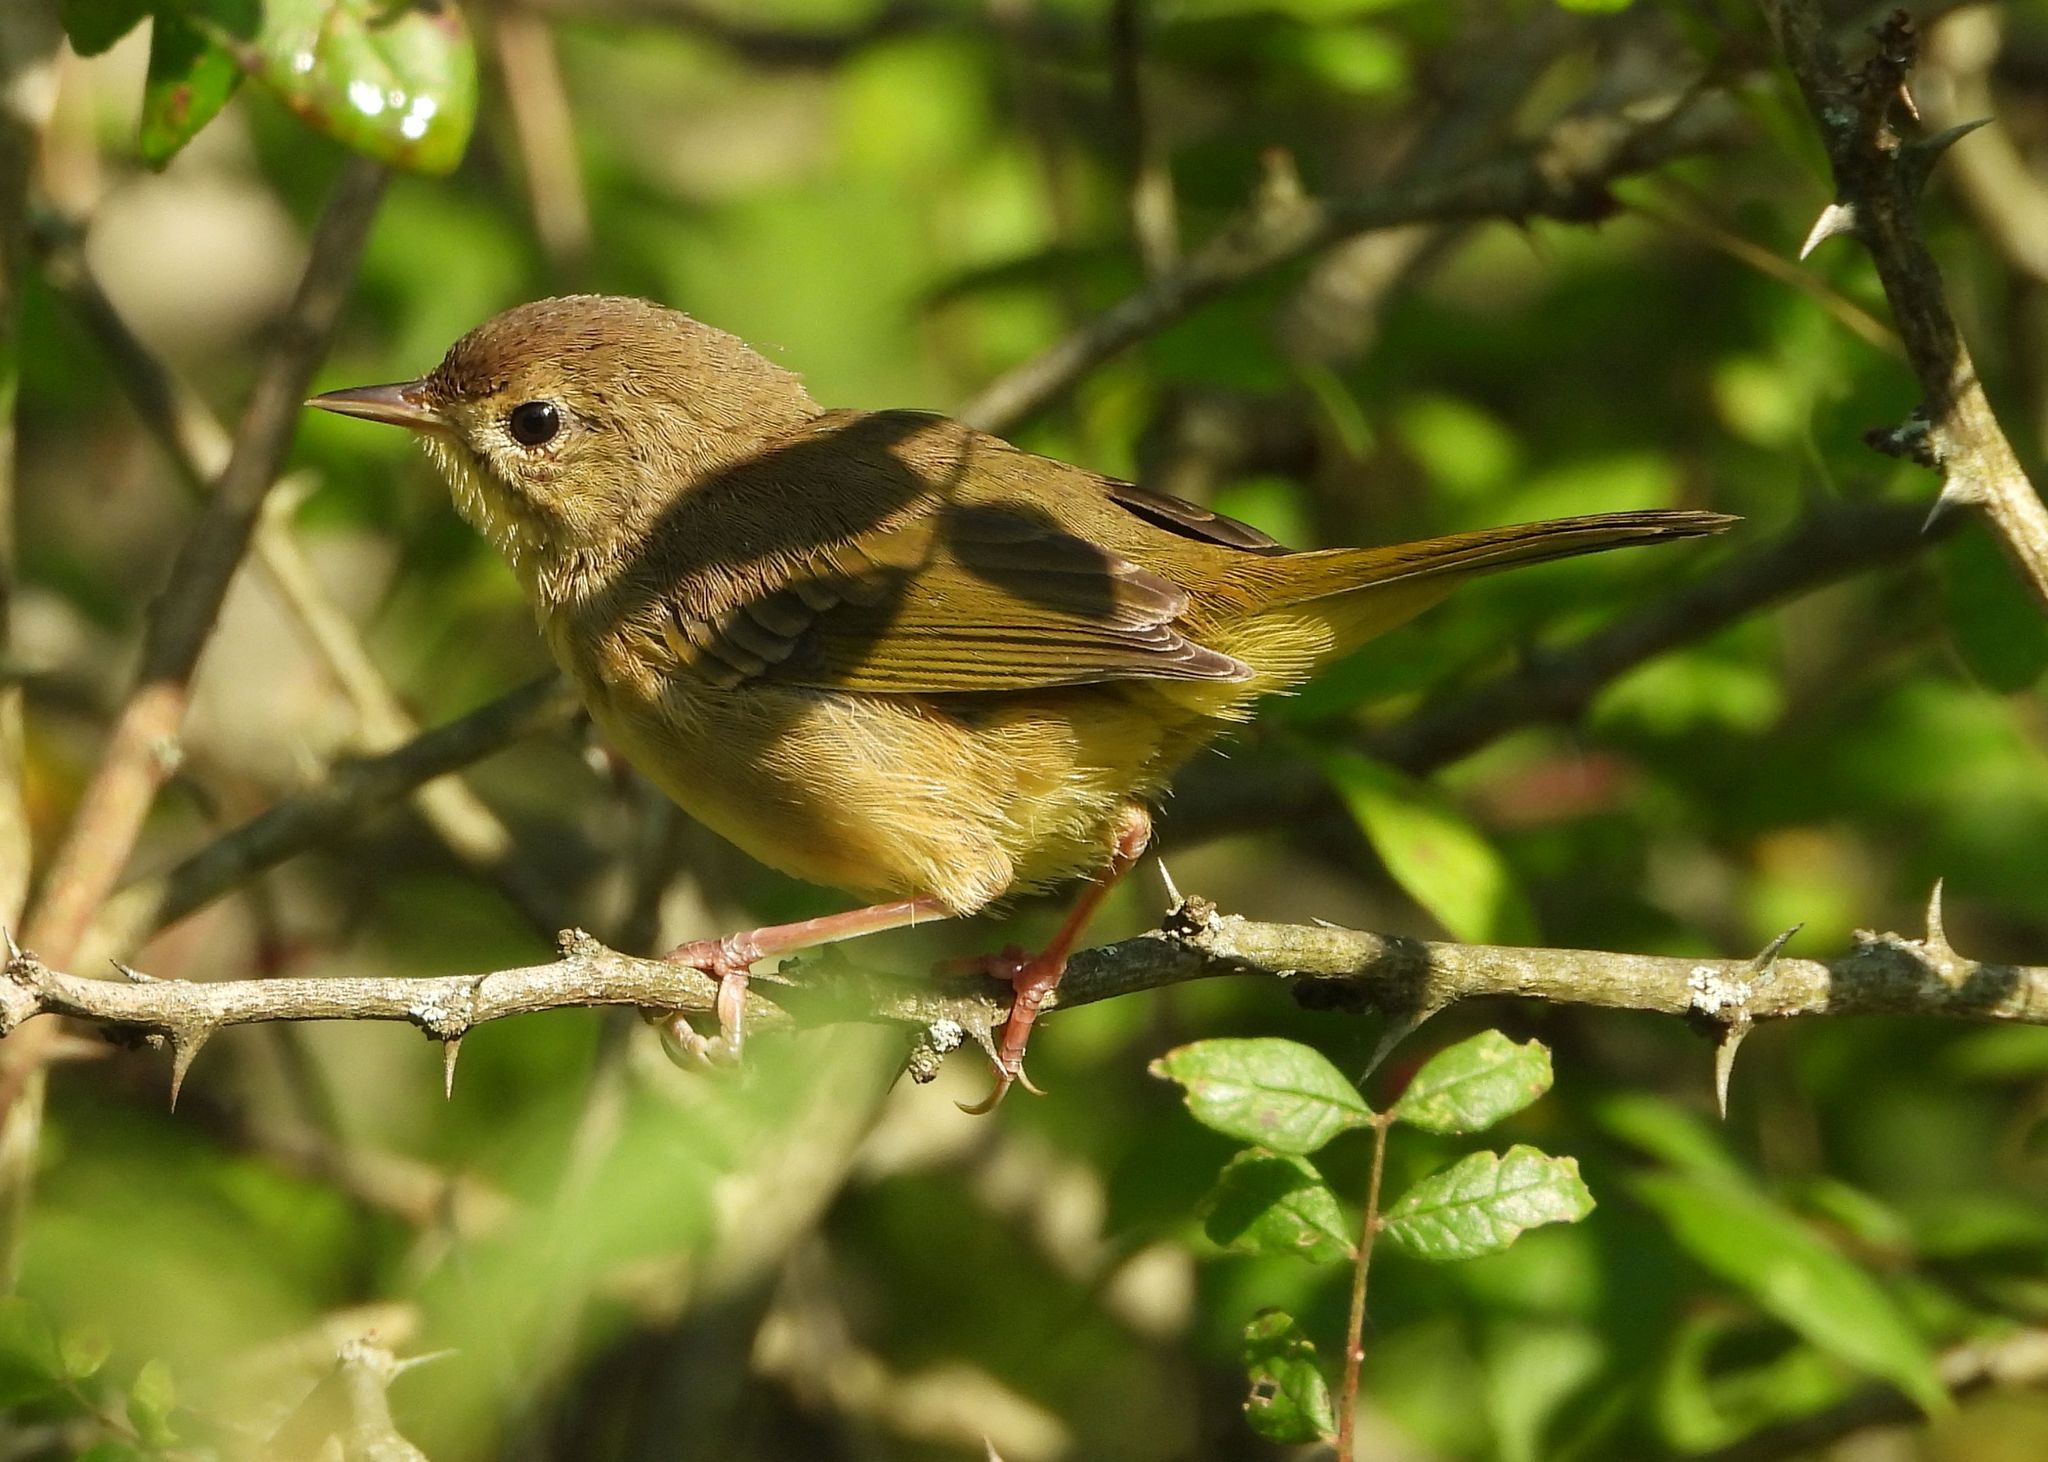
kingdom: Animalia
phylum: Chordata
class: Aves
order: Passeriformes
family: Parulidae
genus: Geothlypis
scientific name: Geothlypis trichas
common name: Common yellowthroat
